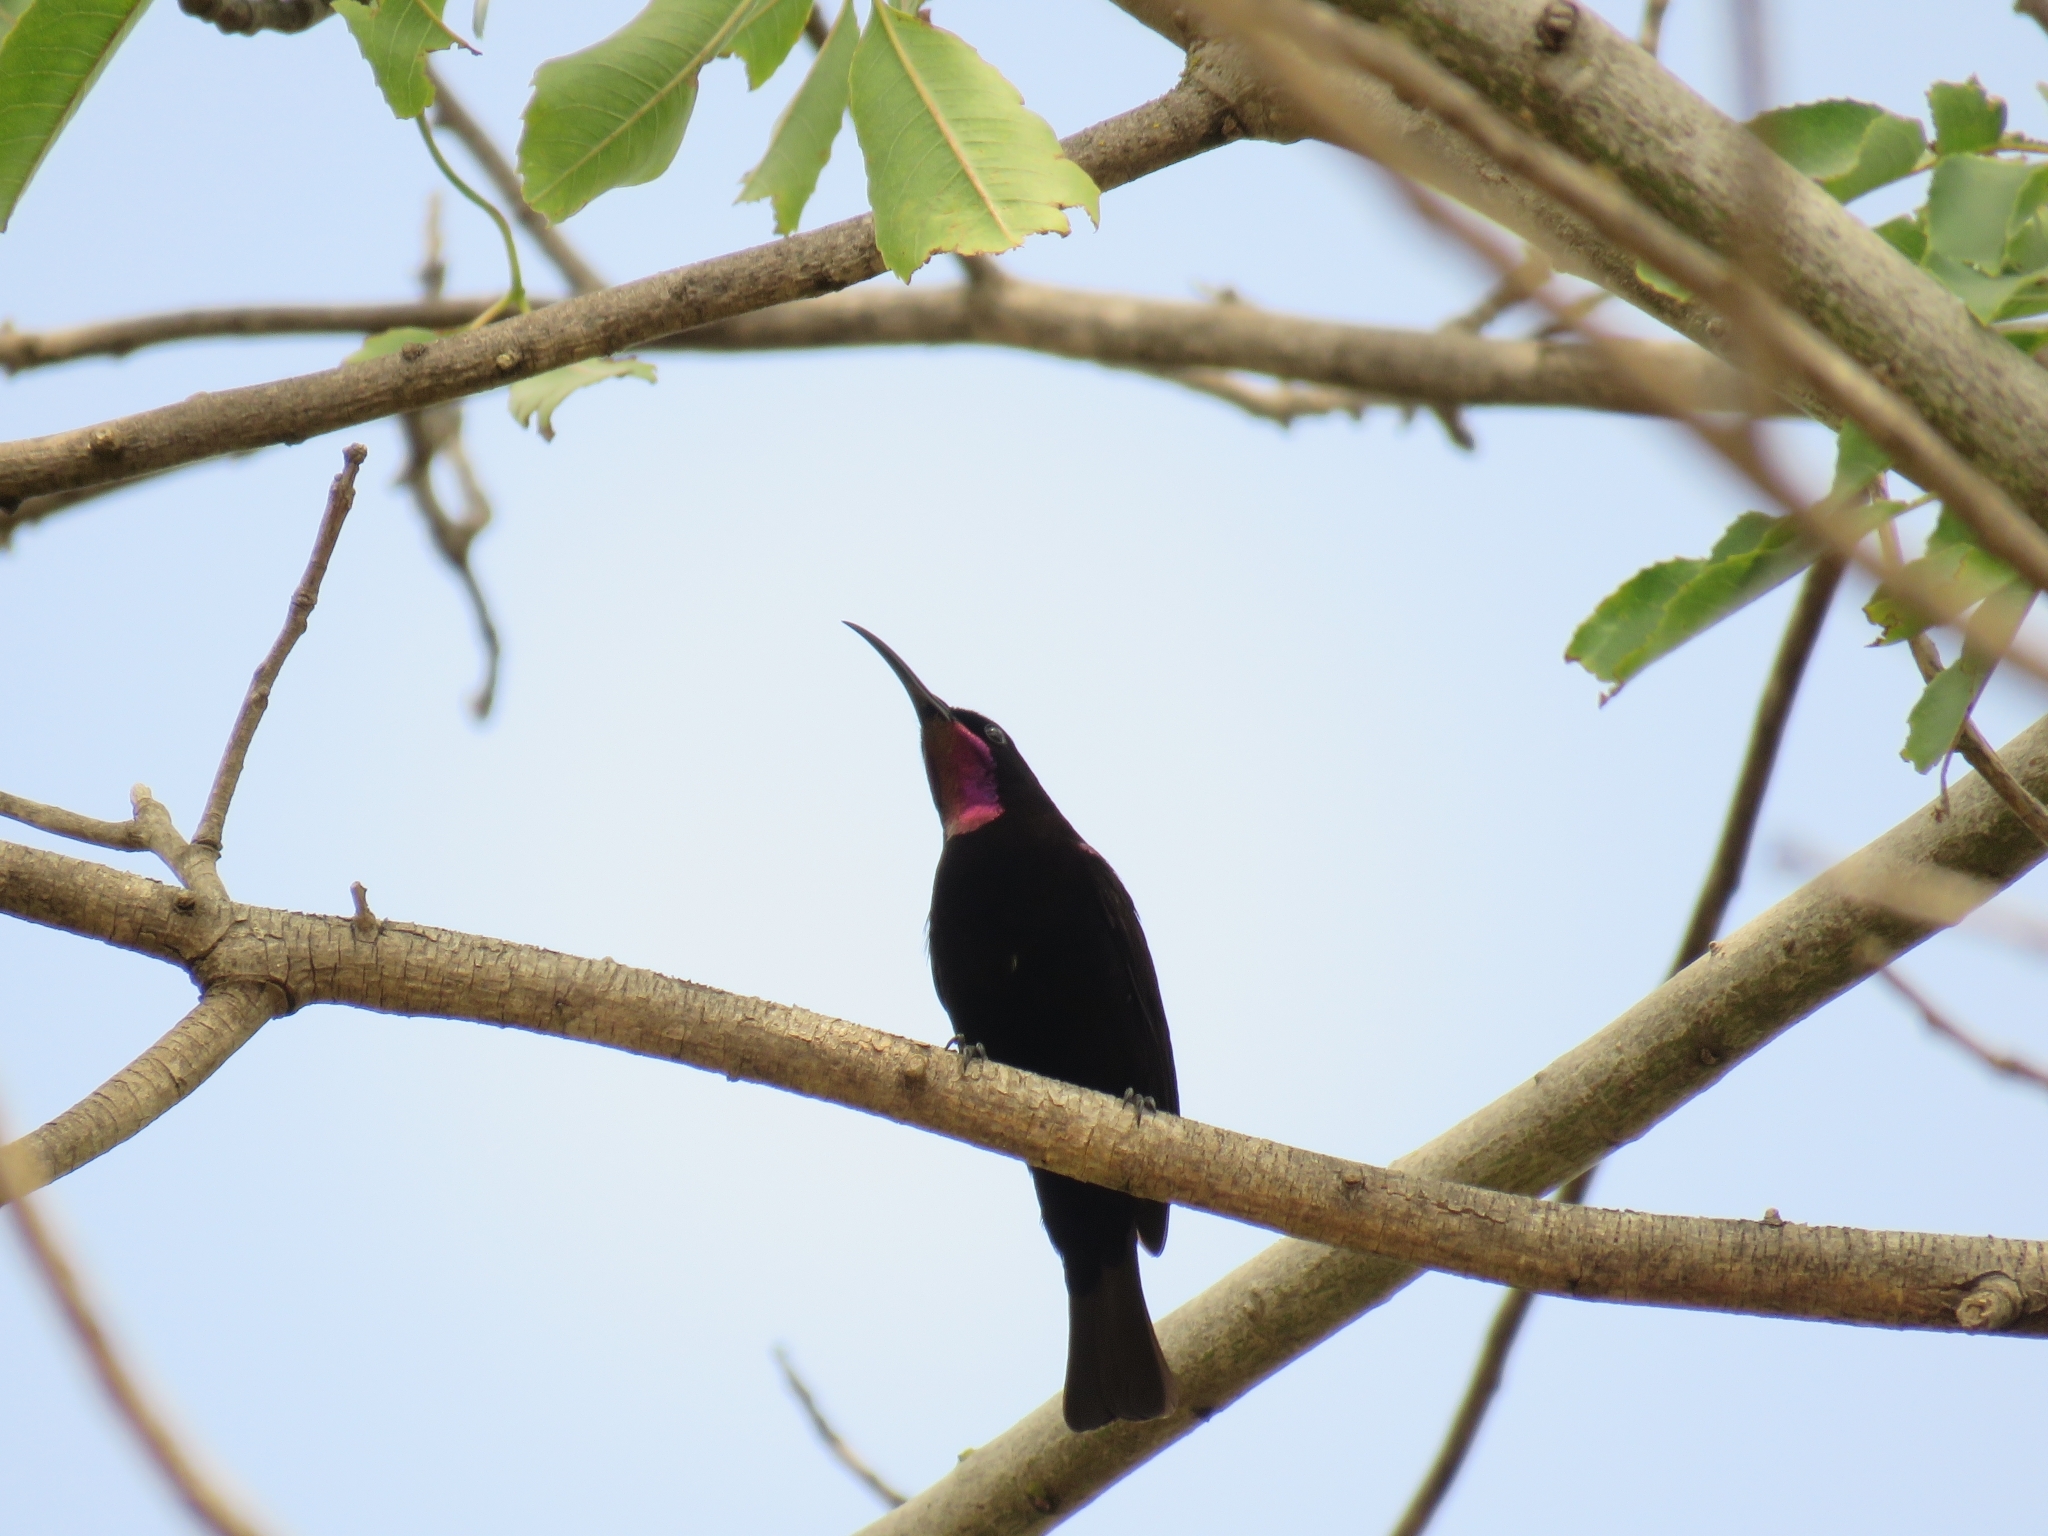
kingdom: Animalia
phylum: Chordata
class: Aves
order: Passeriformes
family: Nectariniidae
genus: Chalcomitra
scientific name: Chalcomitra amethystina
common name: Amethyst sunbird
